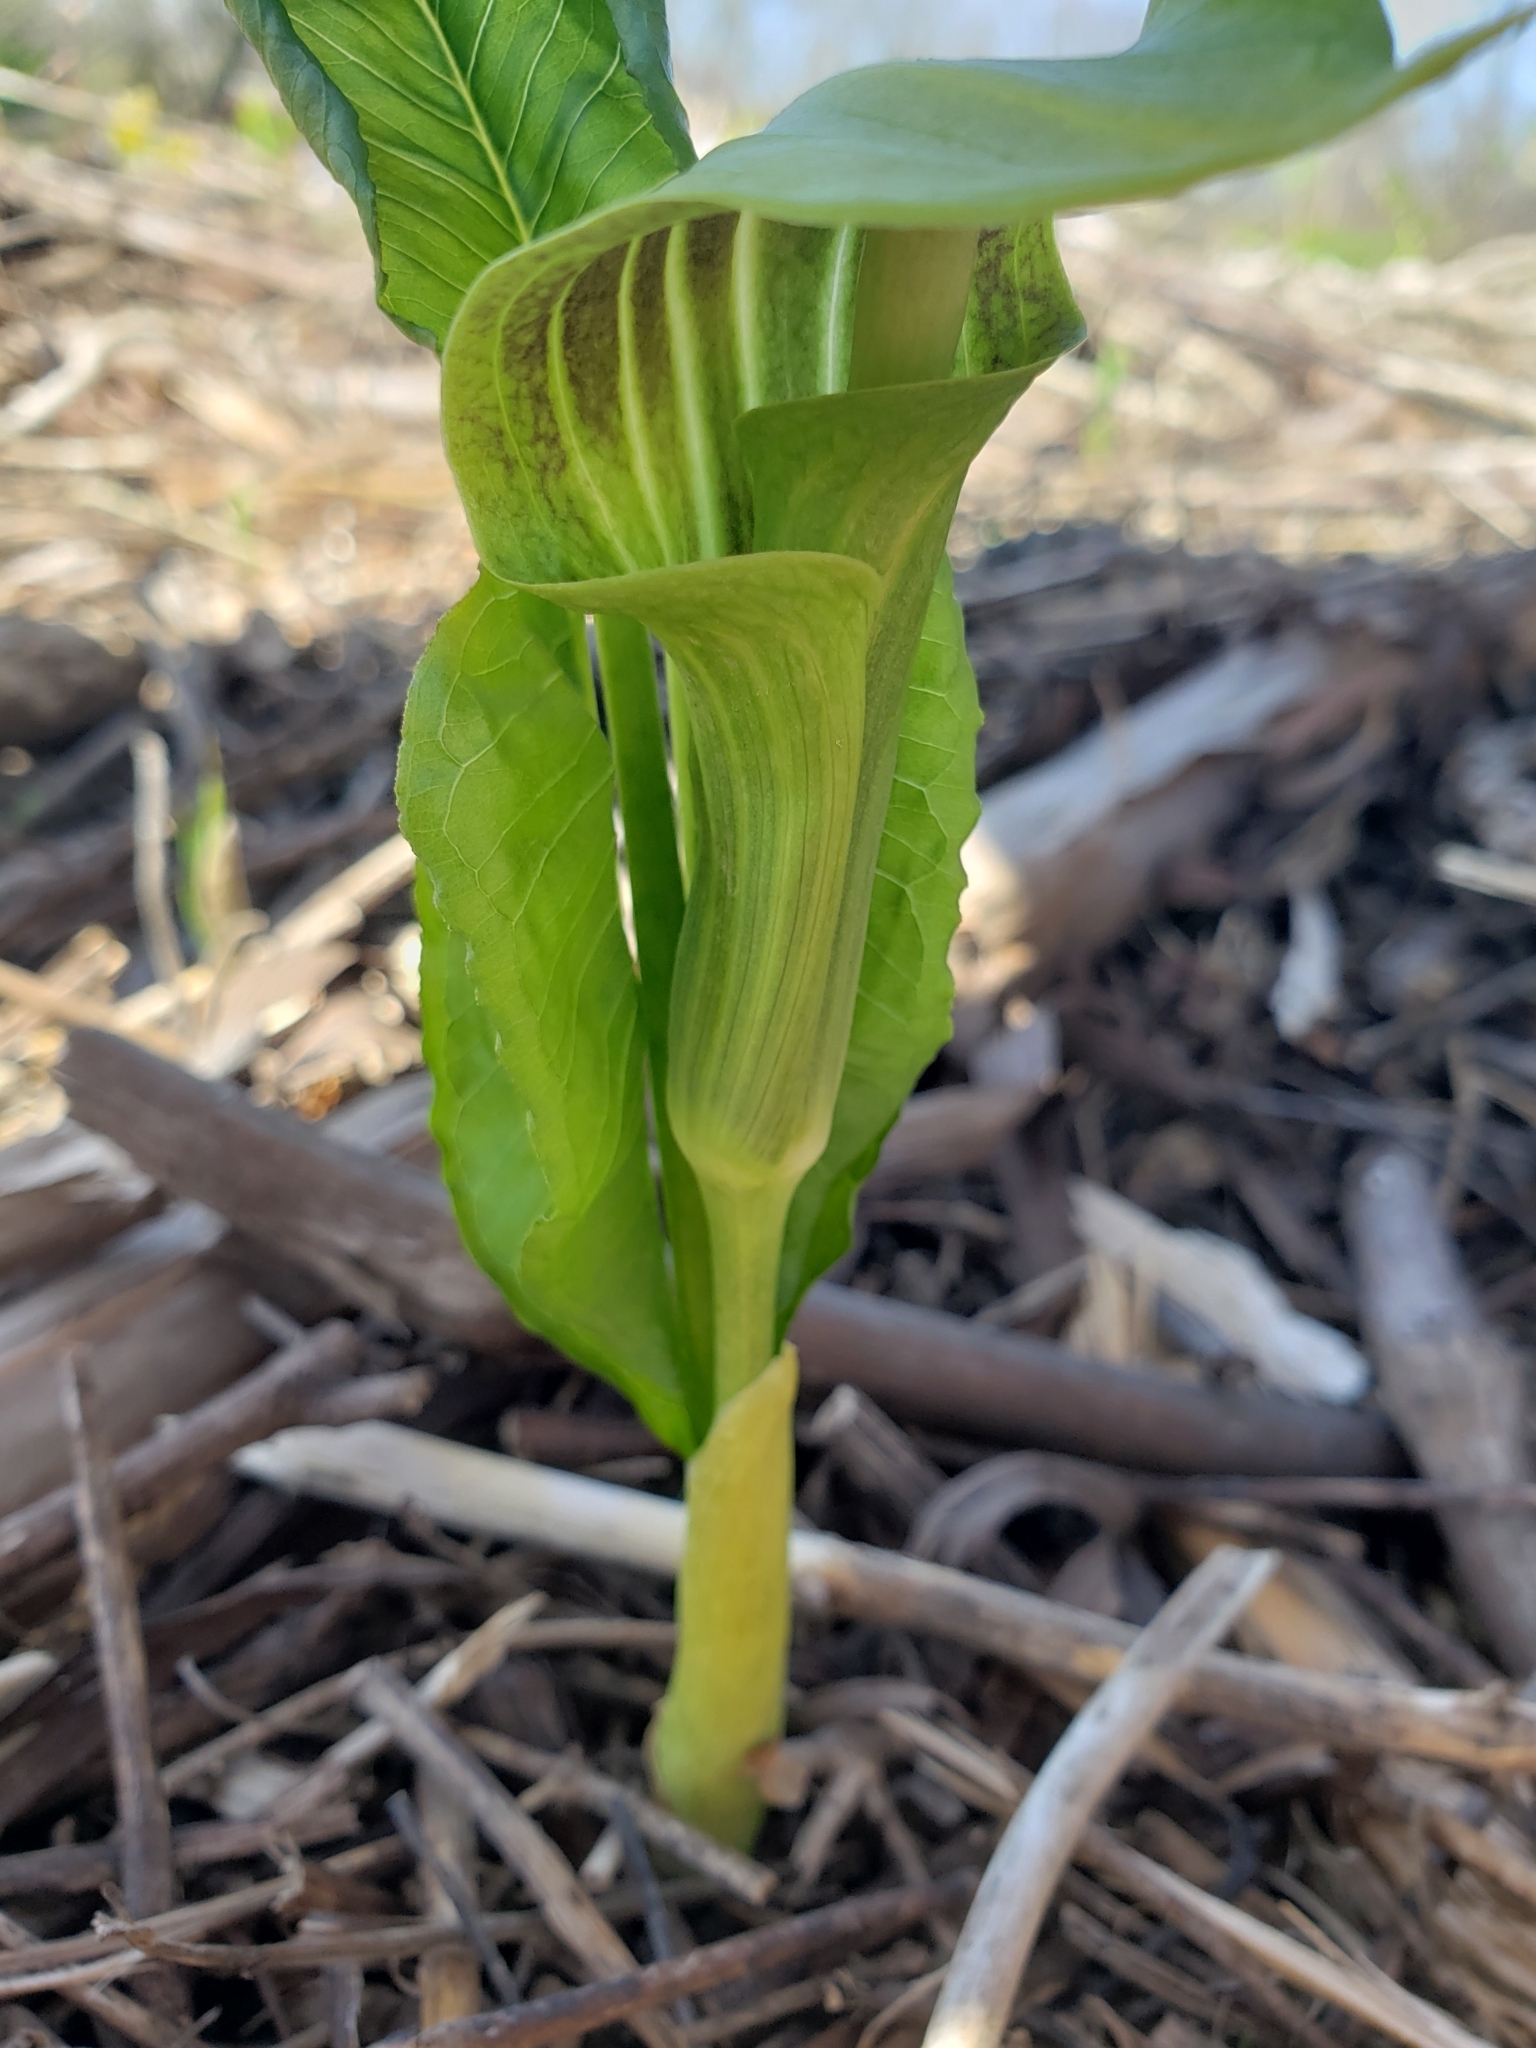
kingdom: Plantae
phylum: Tracheophyta
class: Liliopsida
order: Alismatales
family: Araceae
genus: Arisaema
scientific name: Arisaema triphyllum
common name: Jack-in-the-pulpit
